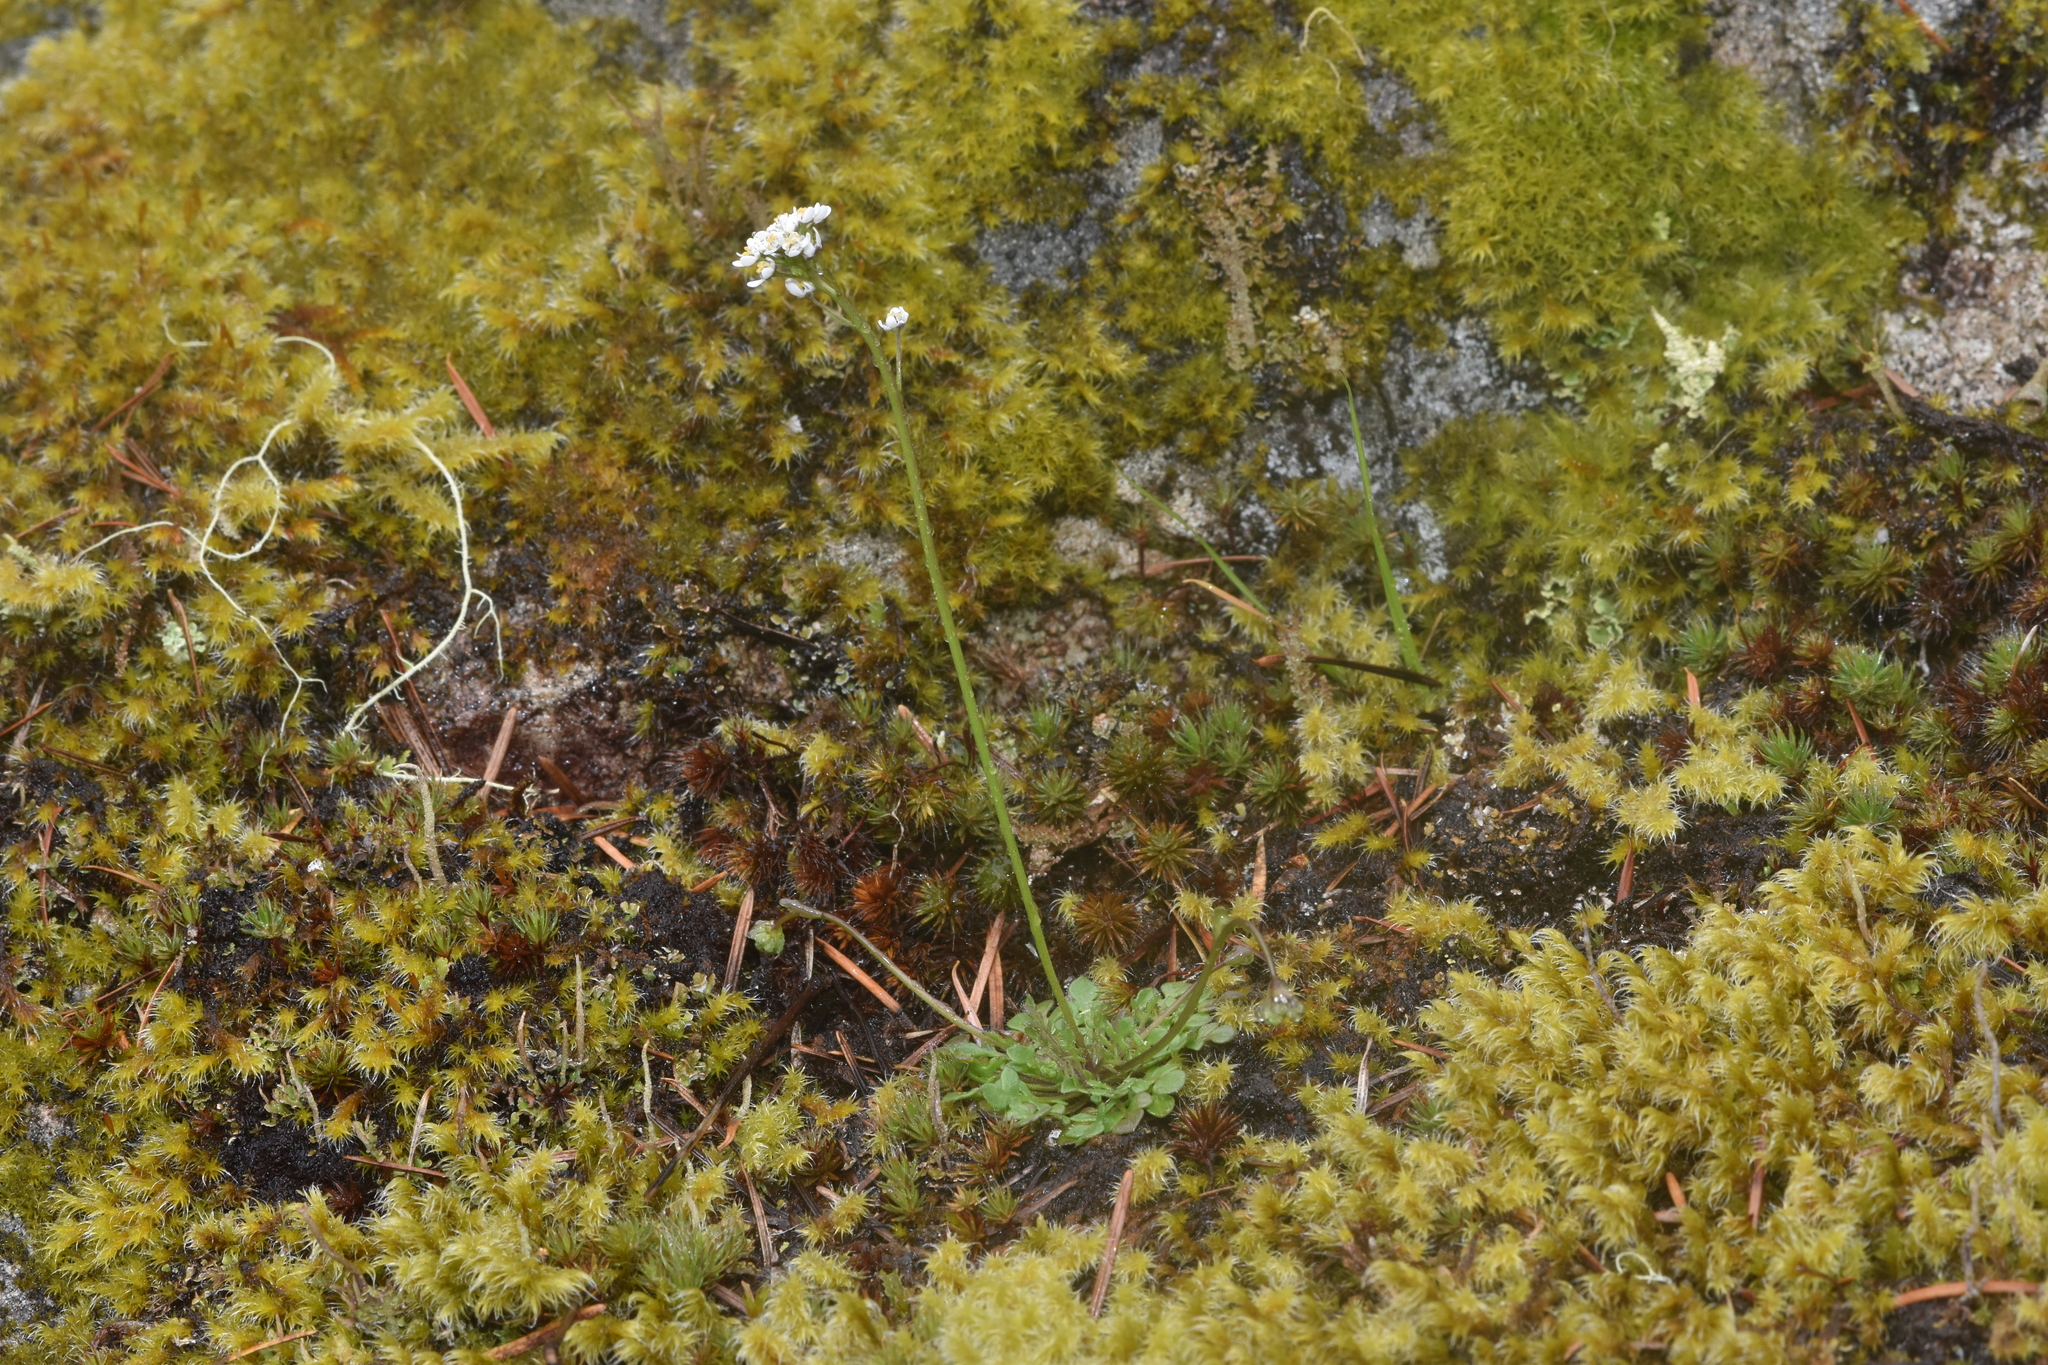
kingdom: Plantae
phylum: Tracheophyta
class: Magnoliopsida
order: Brassicales
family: Brassicaceae
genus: Teesdalia
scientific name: Teesdalia nudicaulis
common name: Shepherd's cress
